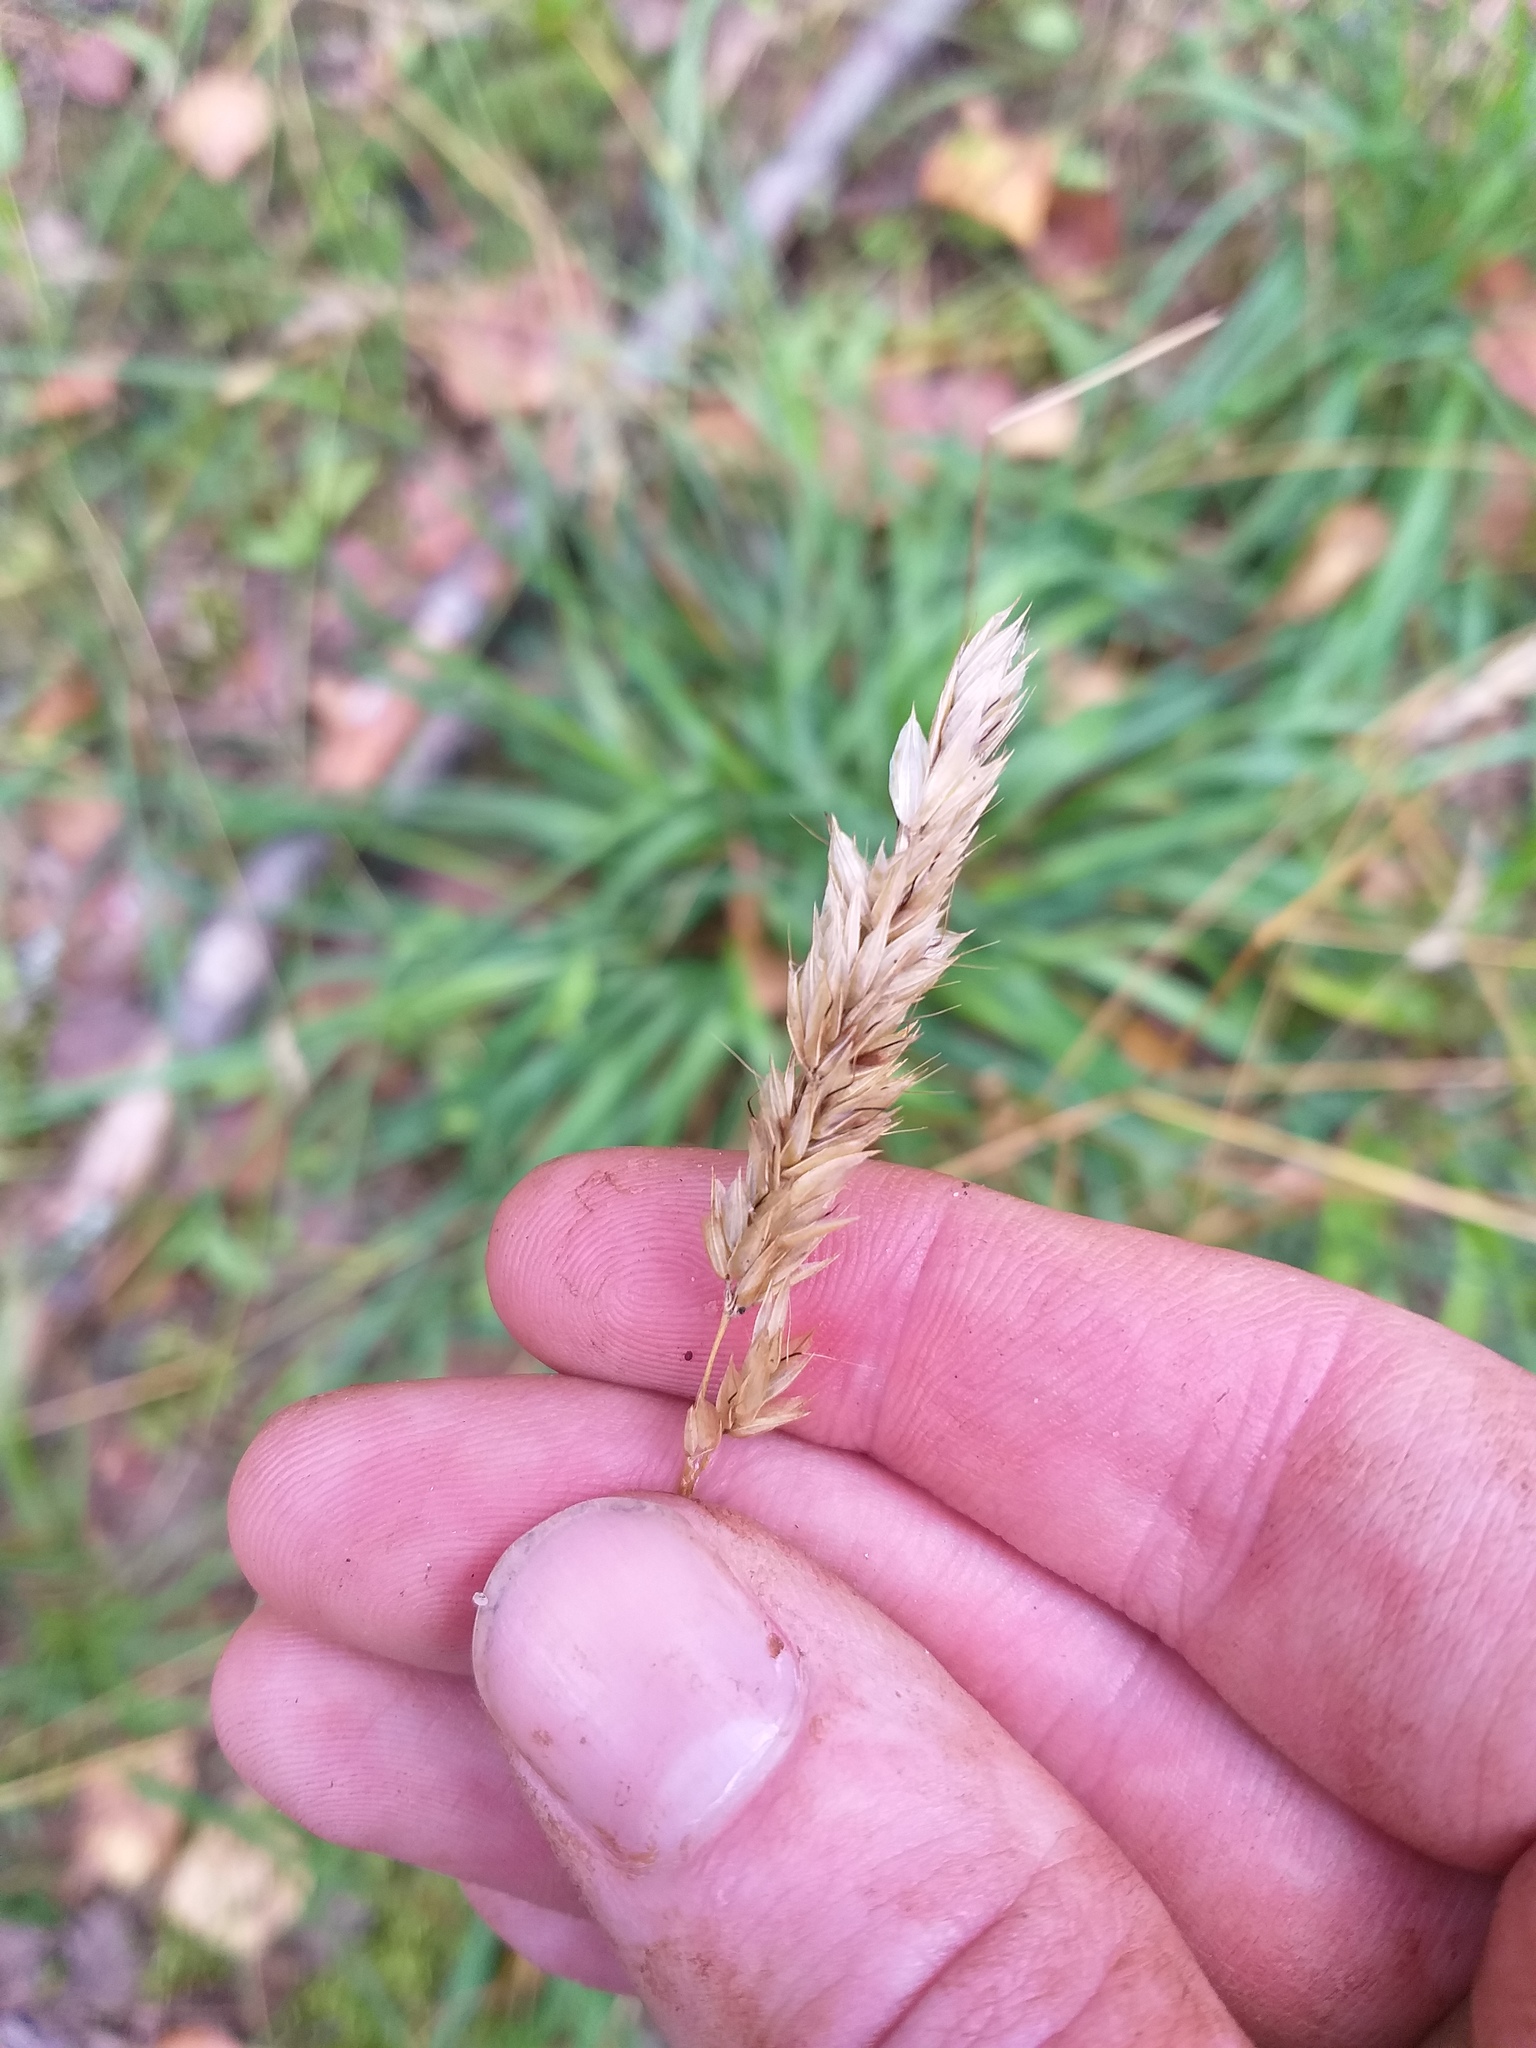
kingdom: Plantae
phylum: Tracheophyta
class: Liliopsida
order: Poales
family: Poaceae
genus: Anthoxanthum
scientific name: Anthoxanthum odoratum
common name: Sweet vernalgrass
